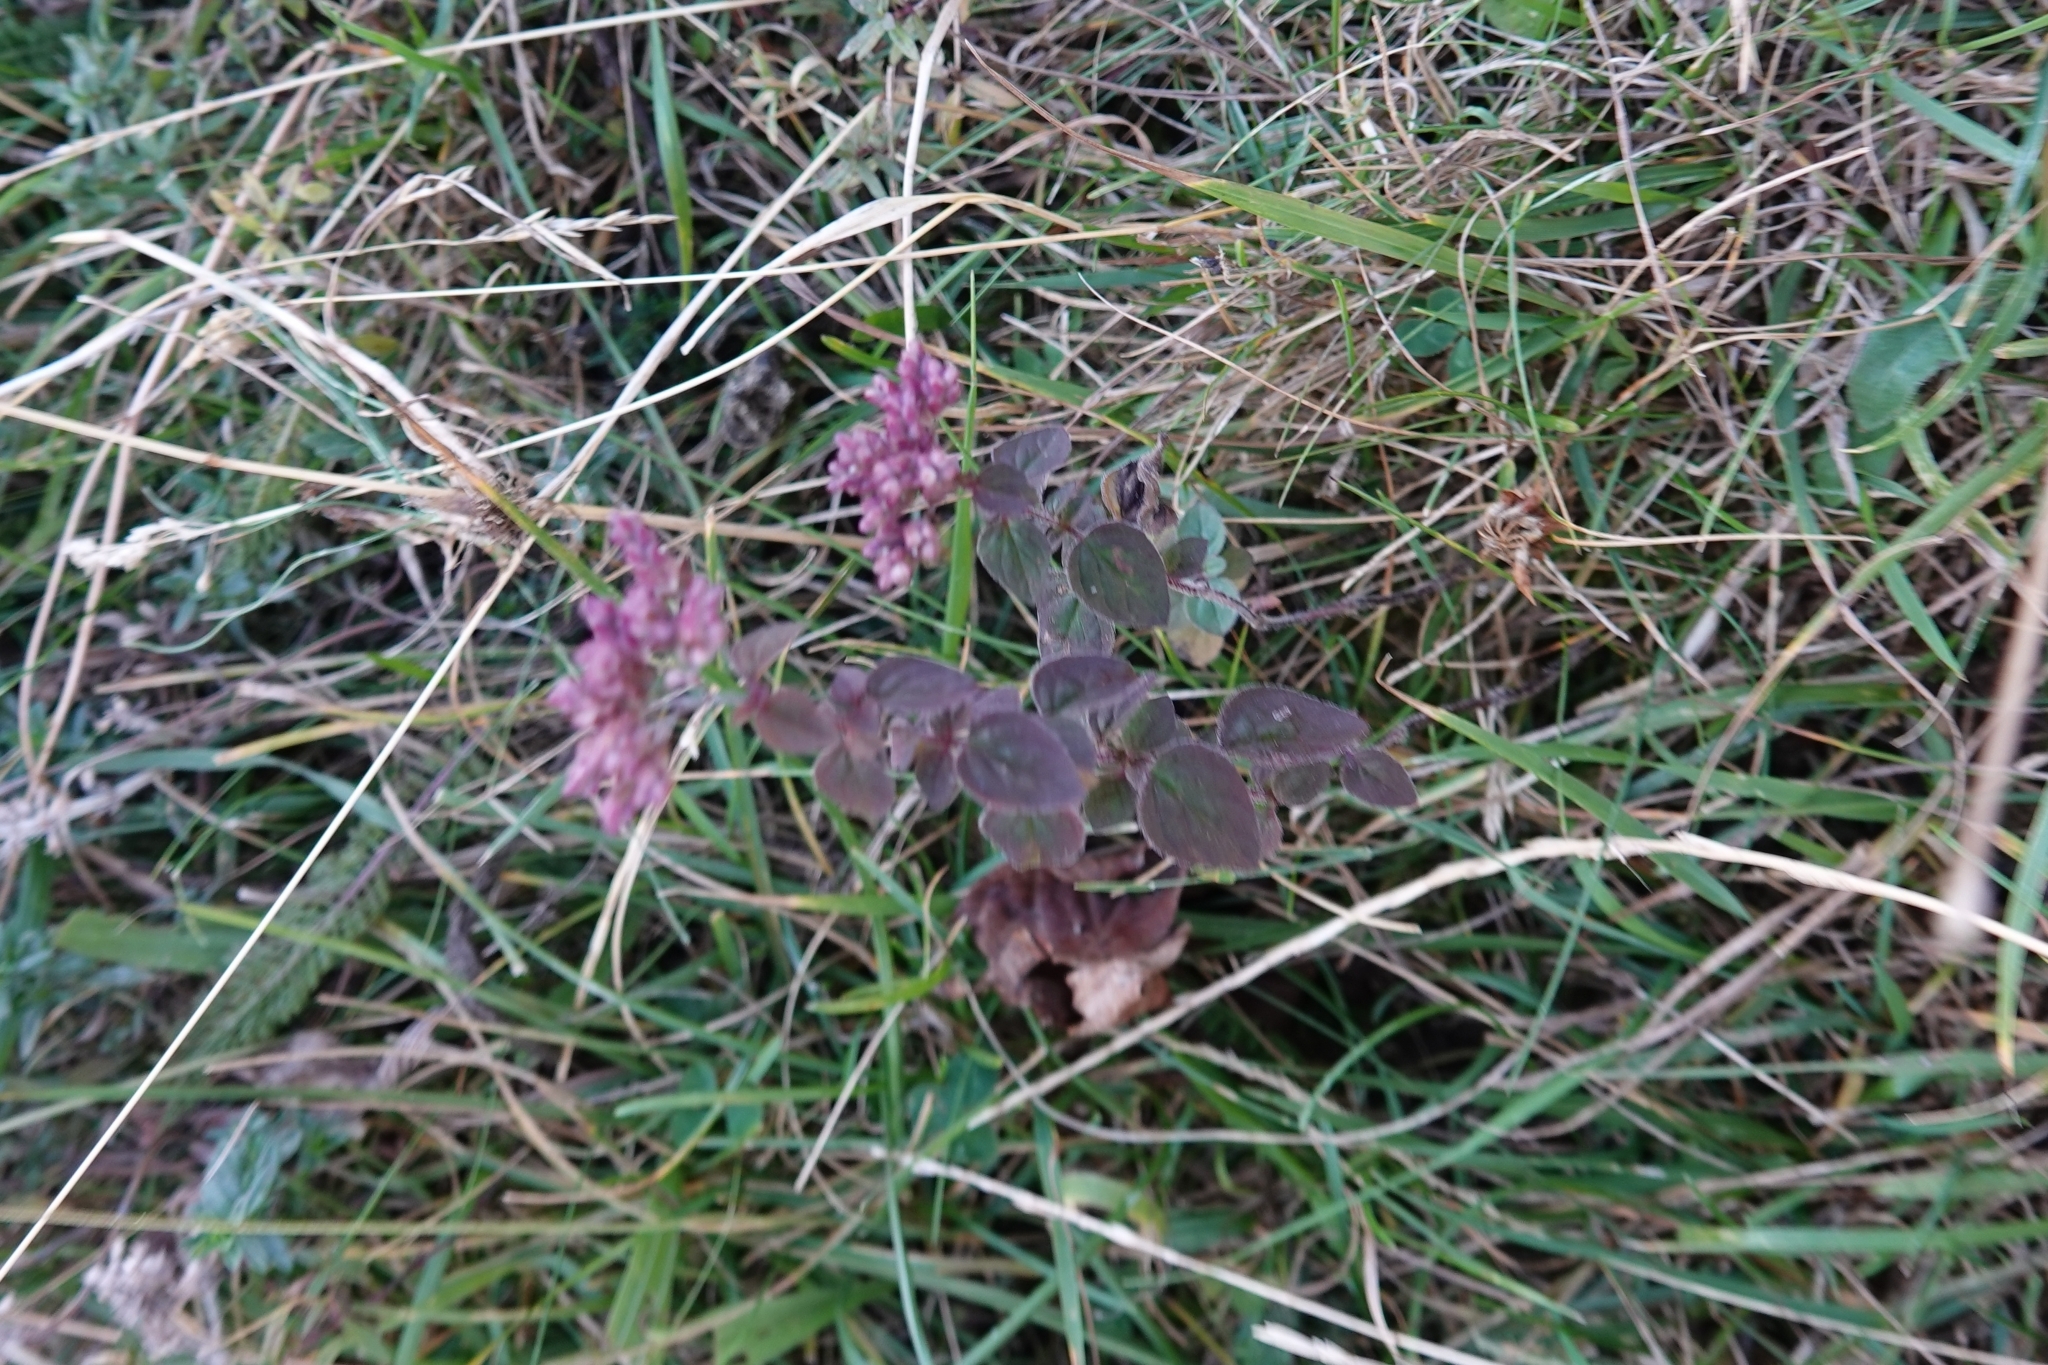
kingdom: Plantae
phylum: Tracheophyta
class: Magnoliopsida
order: Lamiales
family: Lamiaceae
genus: Origanum
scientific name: Origanum vulgare
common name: Wild marjoram
